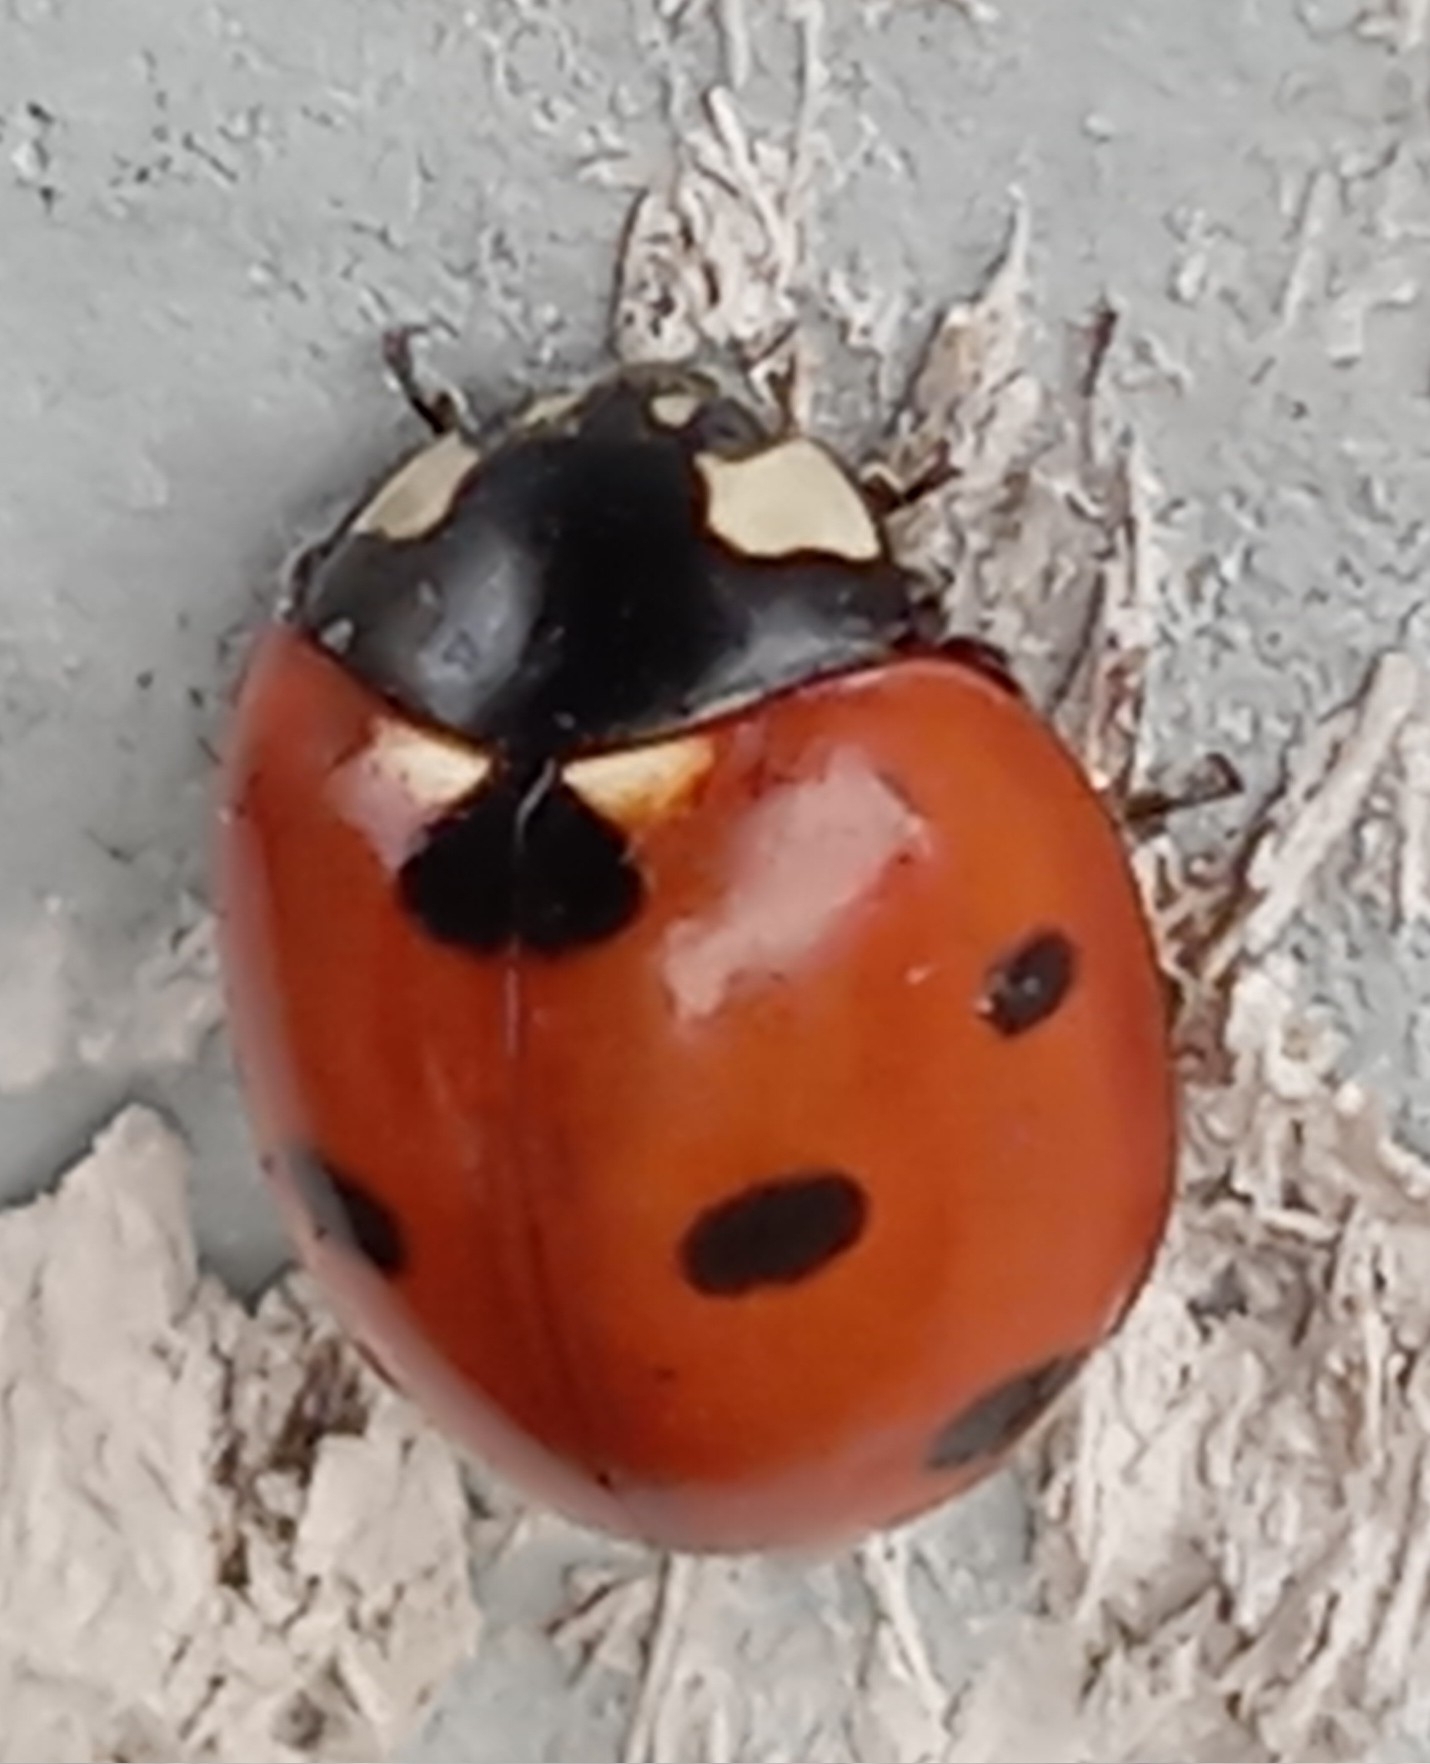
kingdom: Animalia
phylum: Arthropoda
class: Insecta
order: Coleoptera
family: Coccinellidae
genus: Coccinella
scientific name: Coccinella septempunctata
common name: Sevenspotted lady beetle
